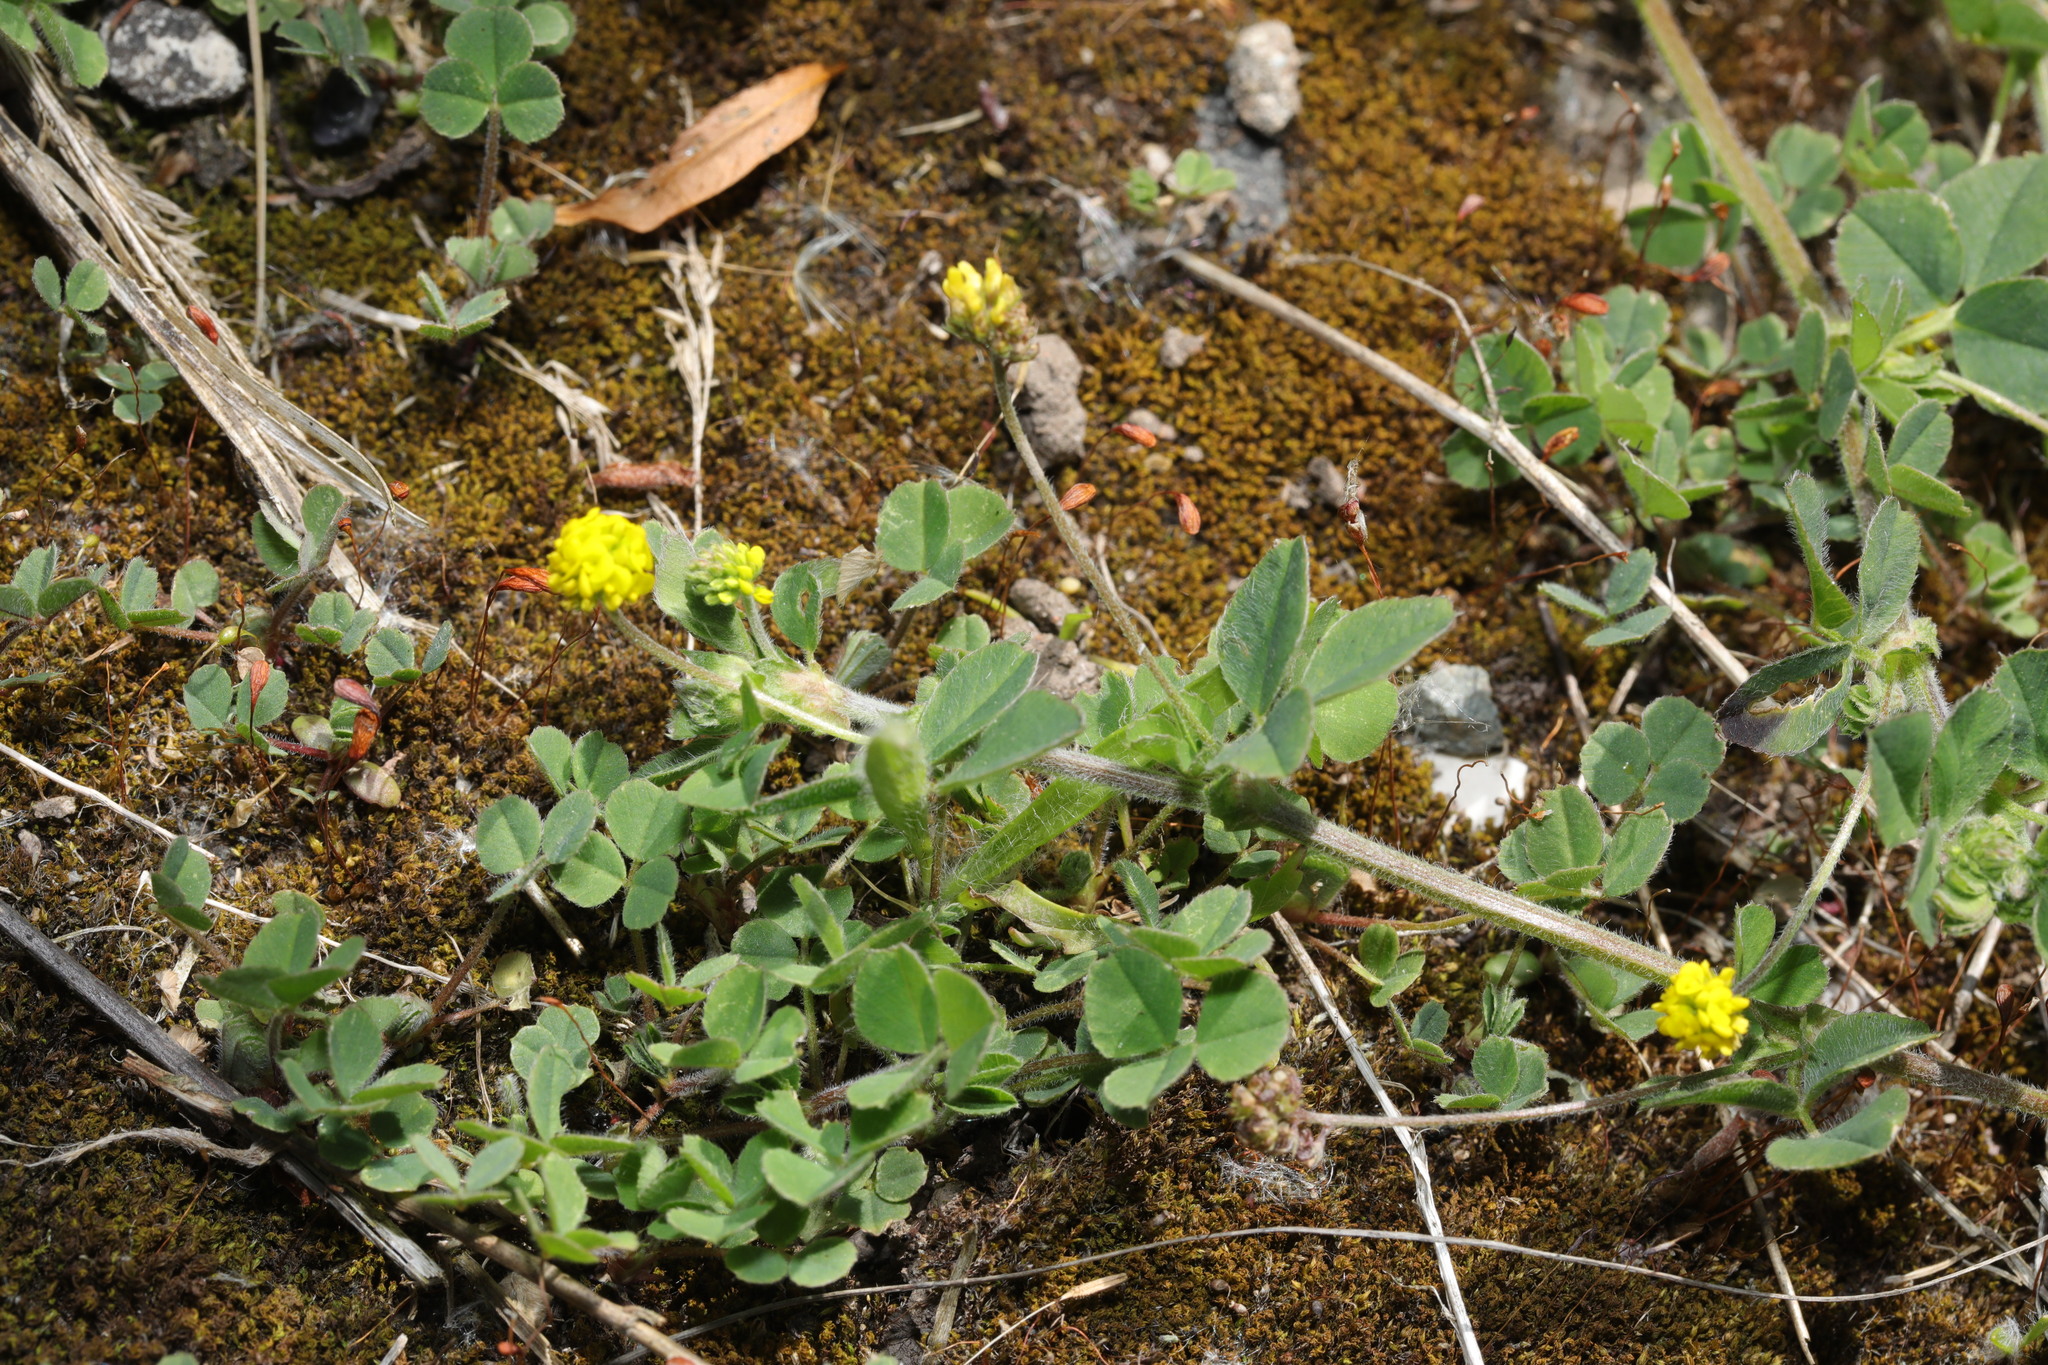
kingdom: Plantae
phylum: Tracheophyta
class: Magnoliopsida
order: Fabales
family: Fabaceae
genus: Medicago
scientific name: Medicago lupulina
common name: Black medick
